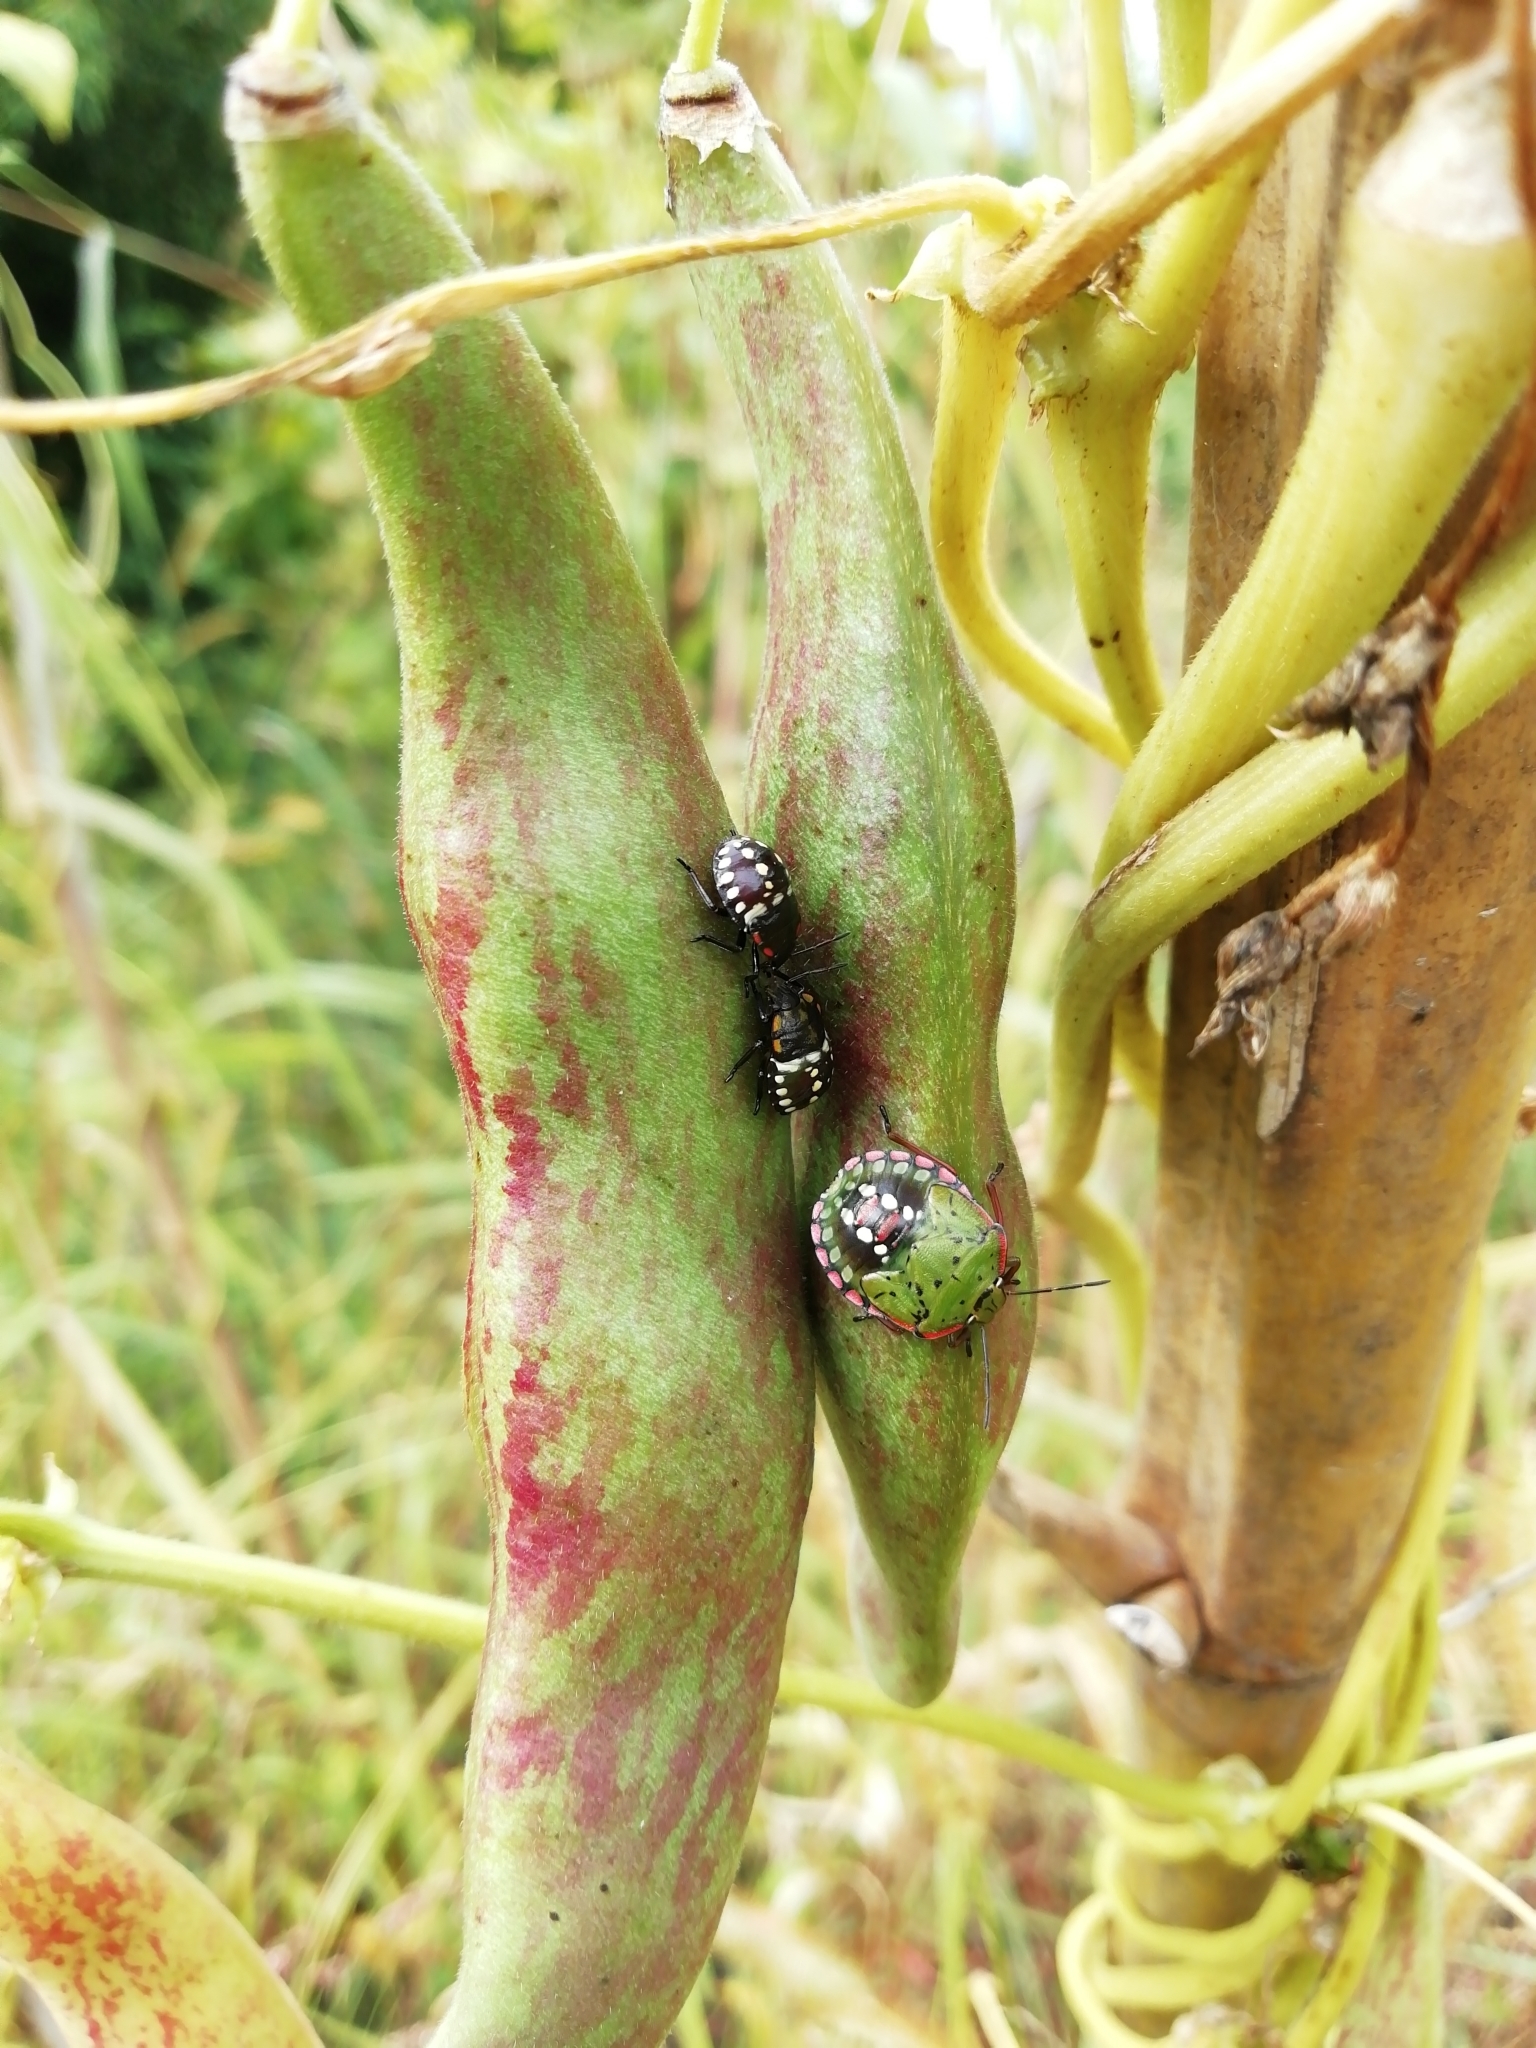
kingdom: Animalia
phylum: Arthropoda
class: Insecta
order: Hemiptera
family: Pentatomidae
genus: Nezara
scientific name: Nezara viridula
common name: Southern green stink bug
